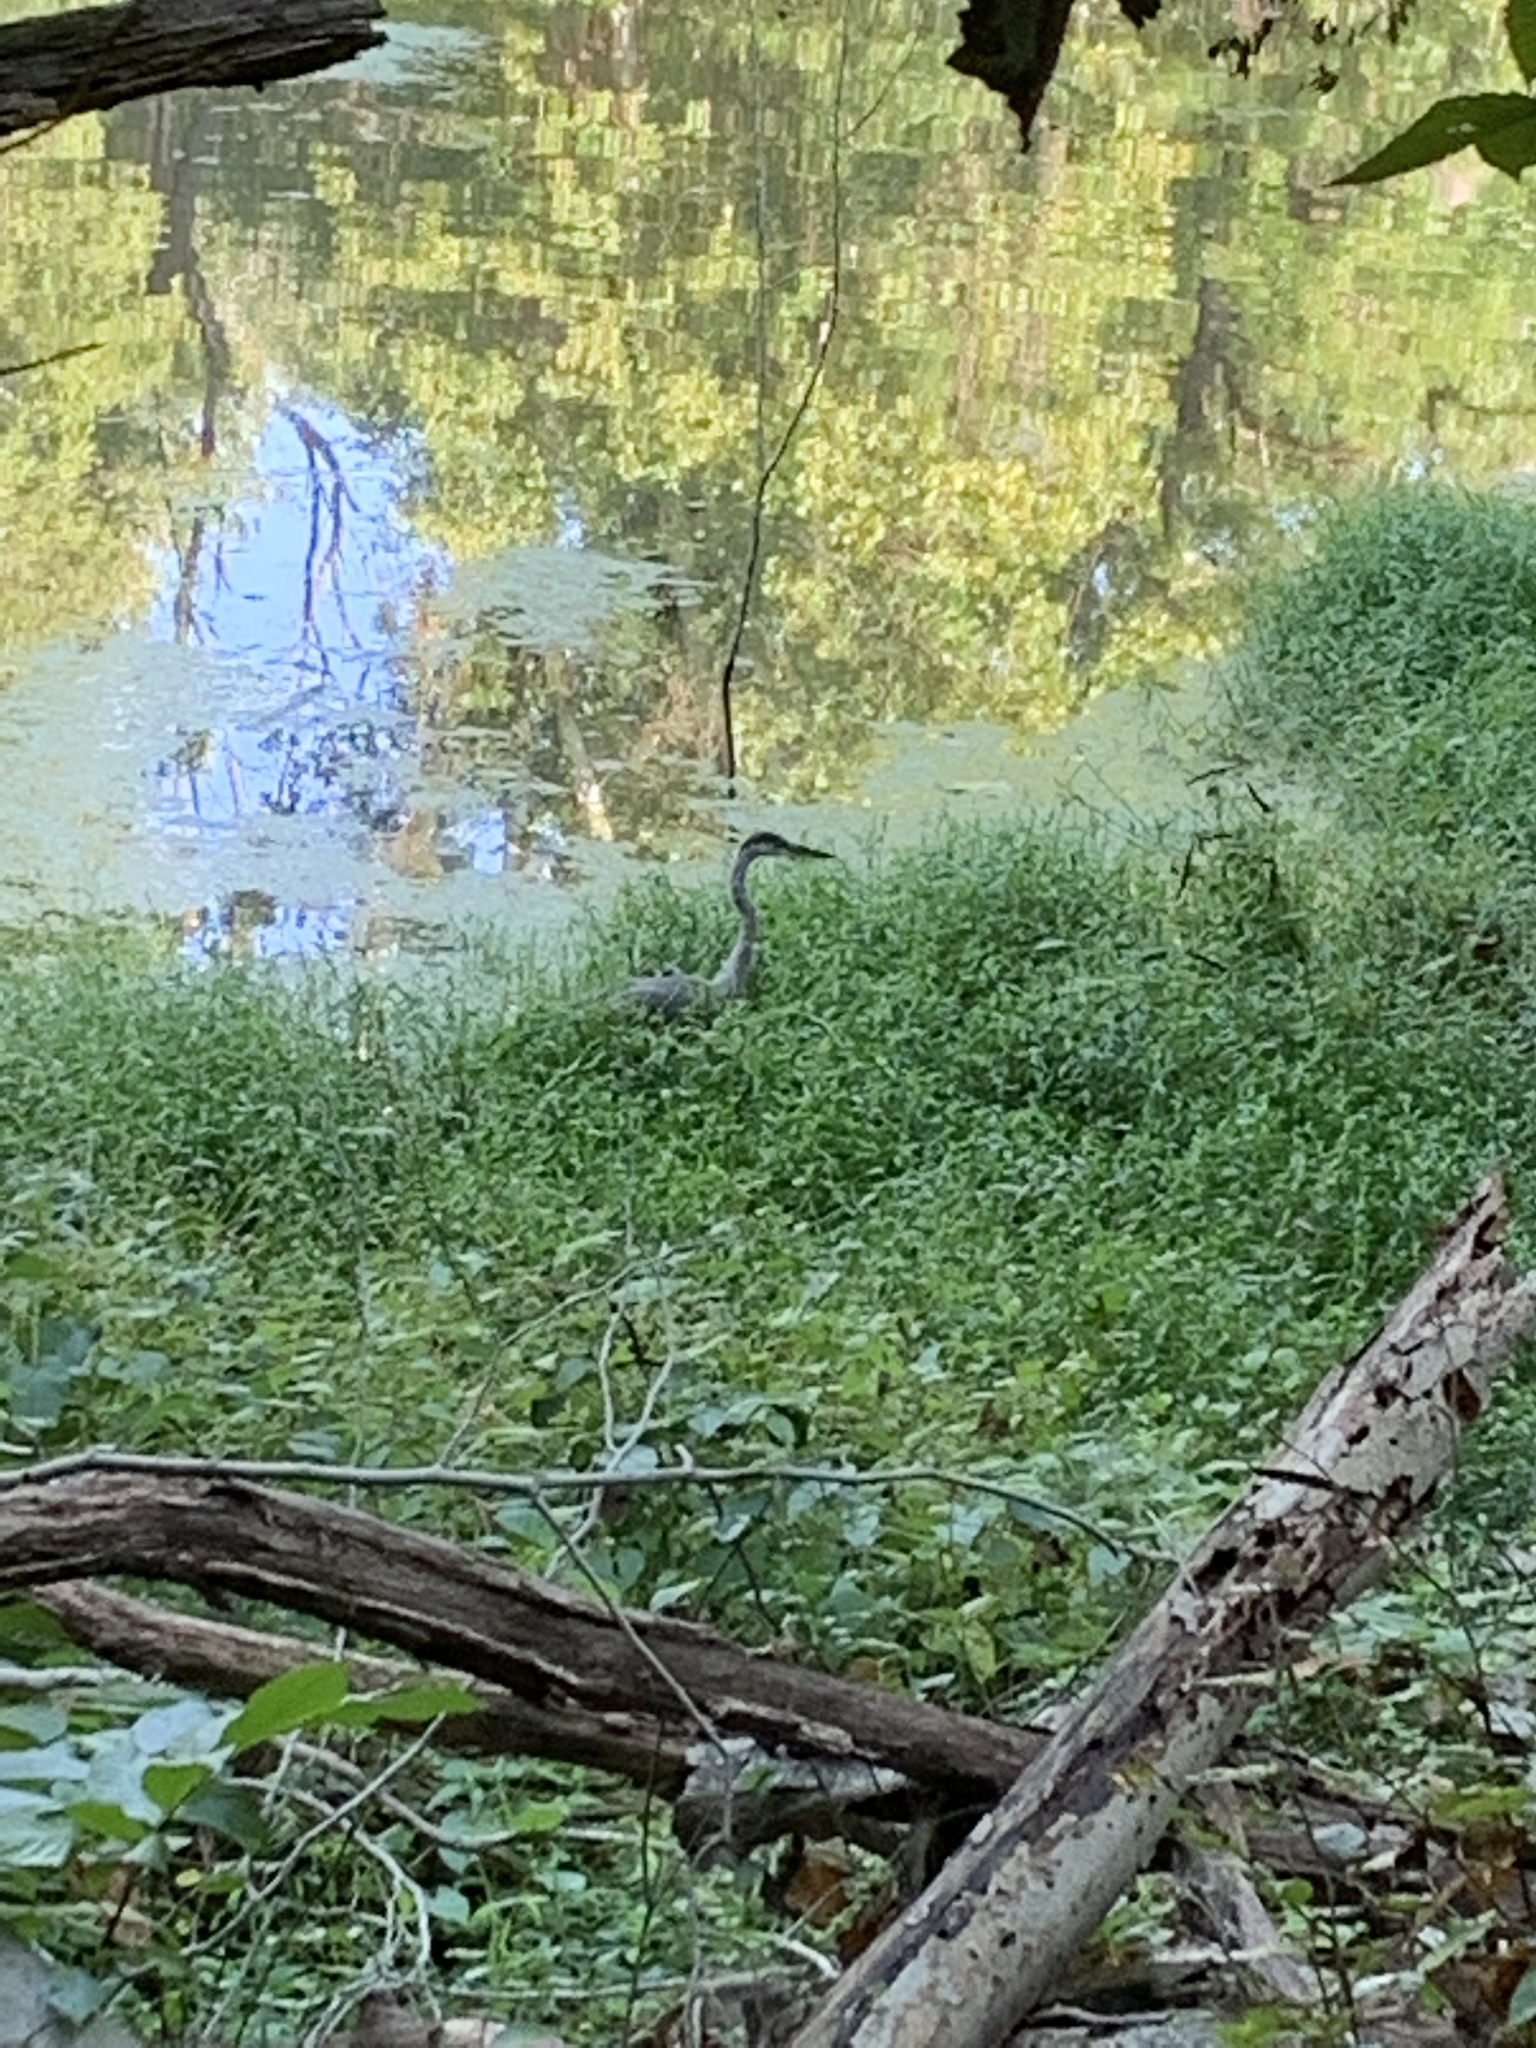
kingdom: Animalia
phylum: Chordata
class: Aves
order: Pelecaniformes
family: Ardeidae
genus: Ardea
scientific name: Ardea herodias
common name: Great blue heron
